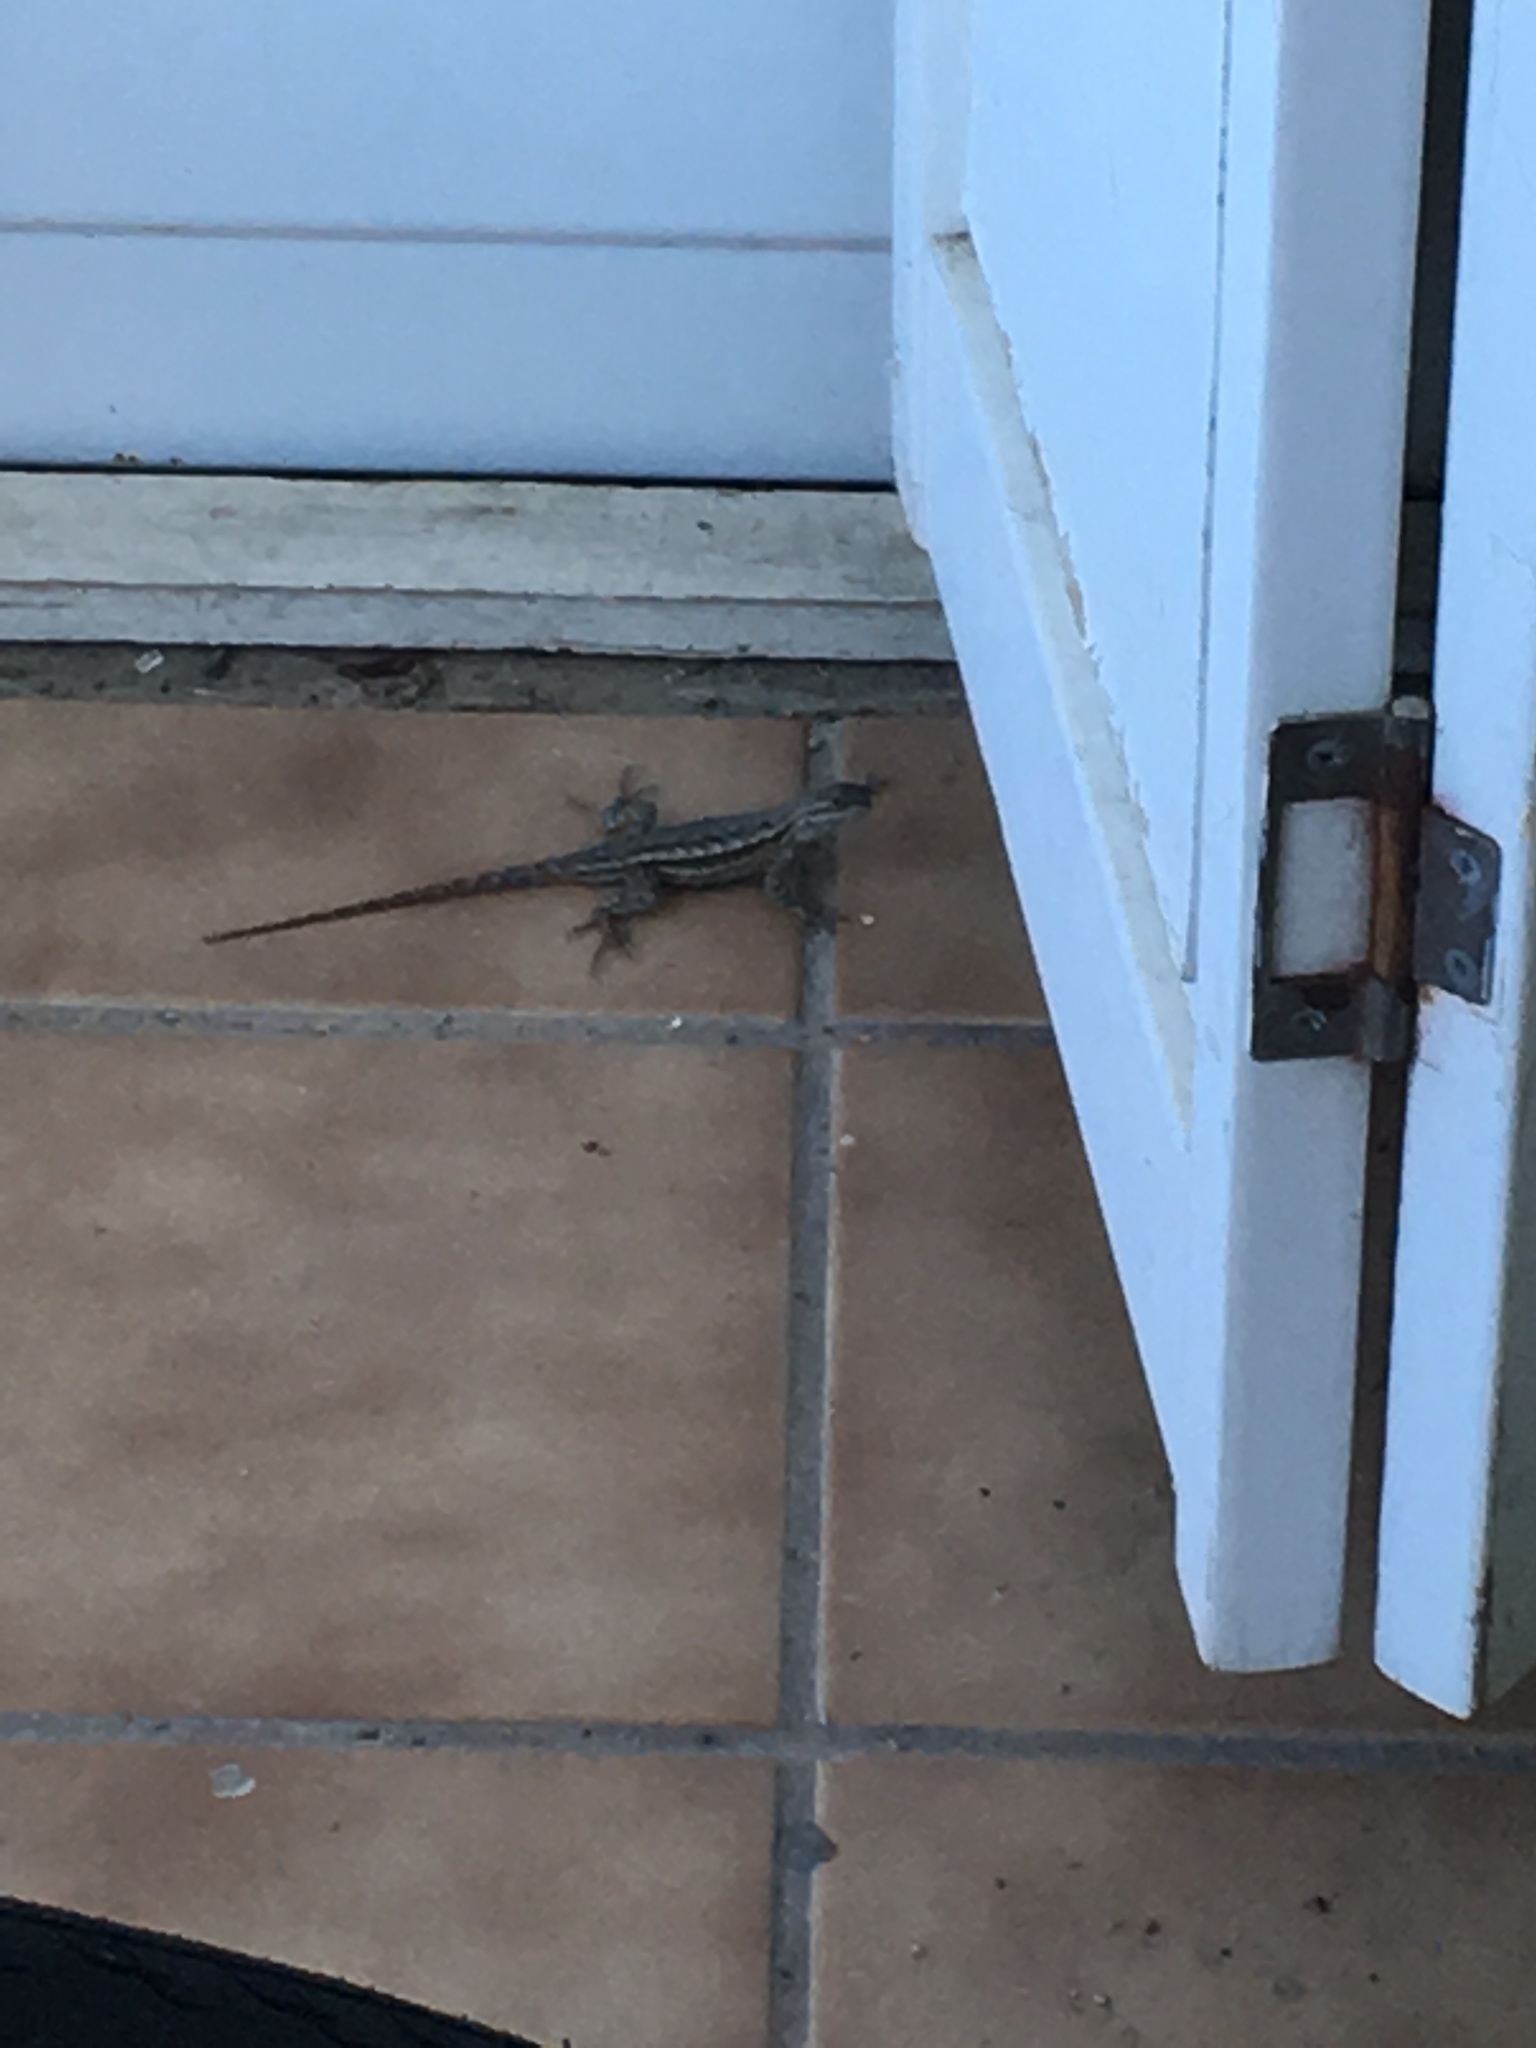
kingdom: Animalia
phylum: Chordata
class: Squamata
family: Phrynosomatidae
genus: Sceloporus
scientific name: Sceloporus occidentalis
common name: Western fence lizard
